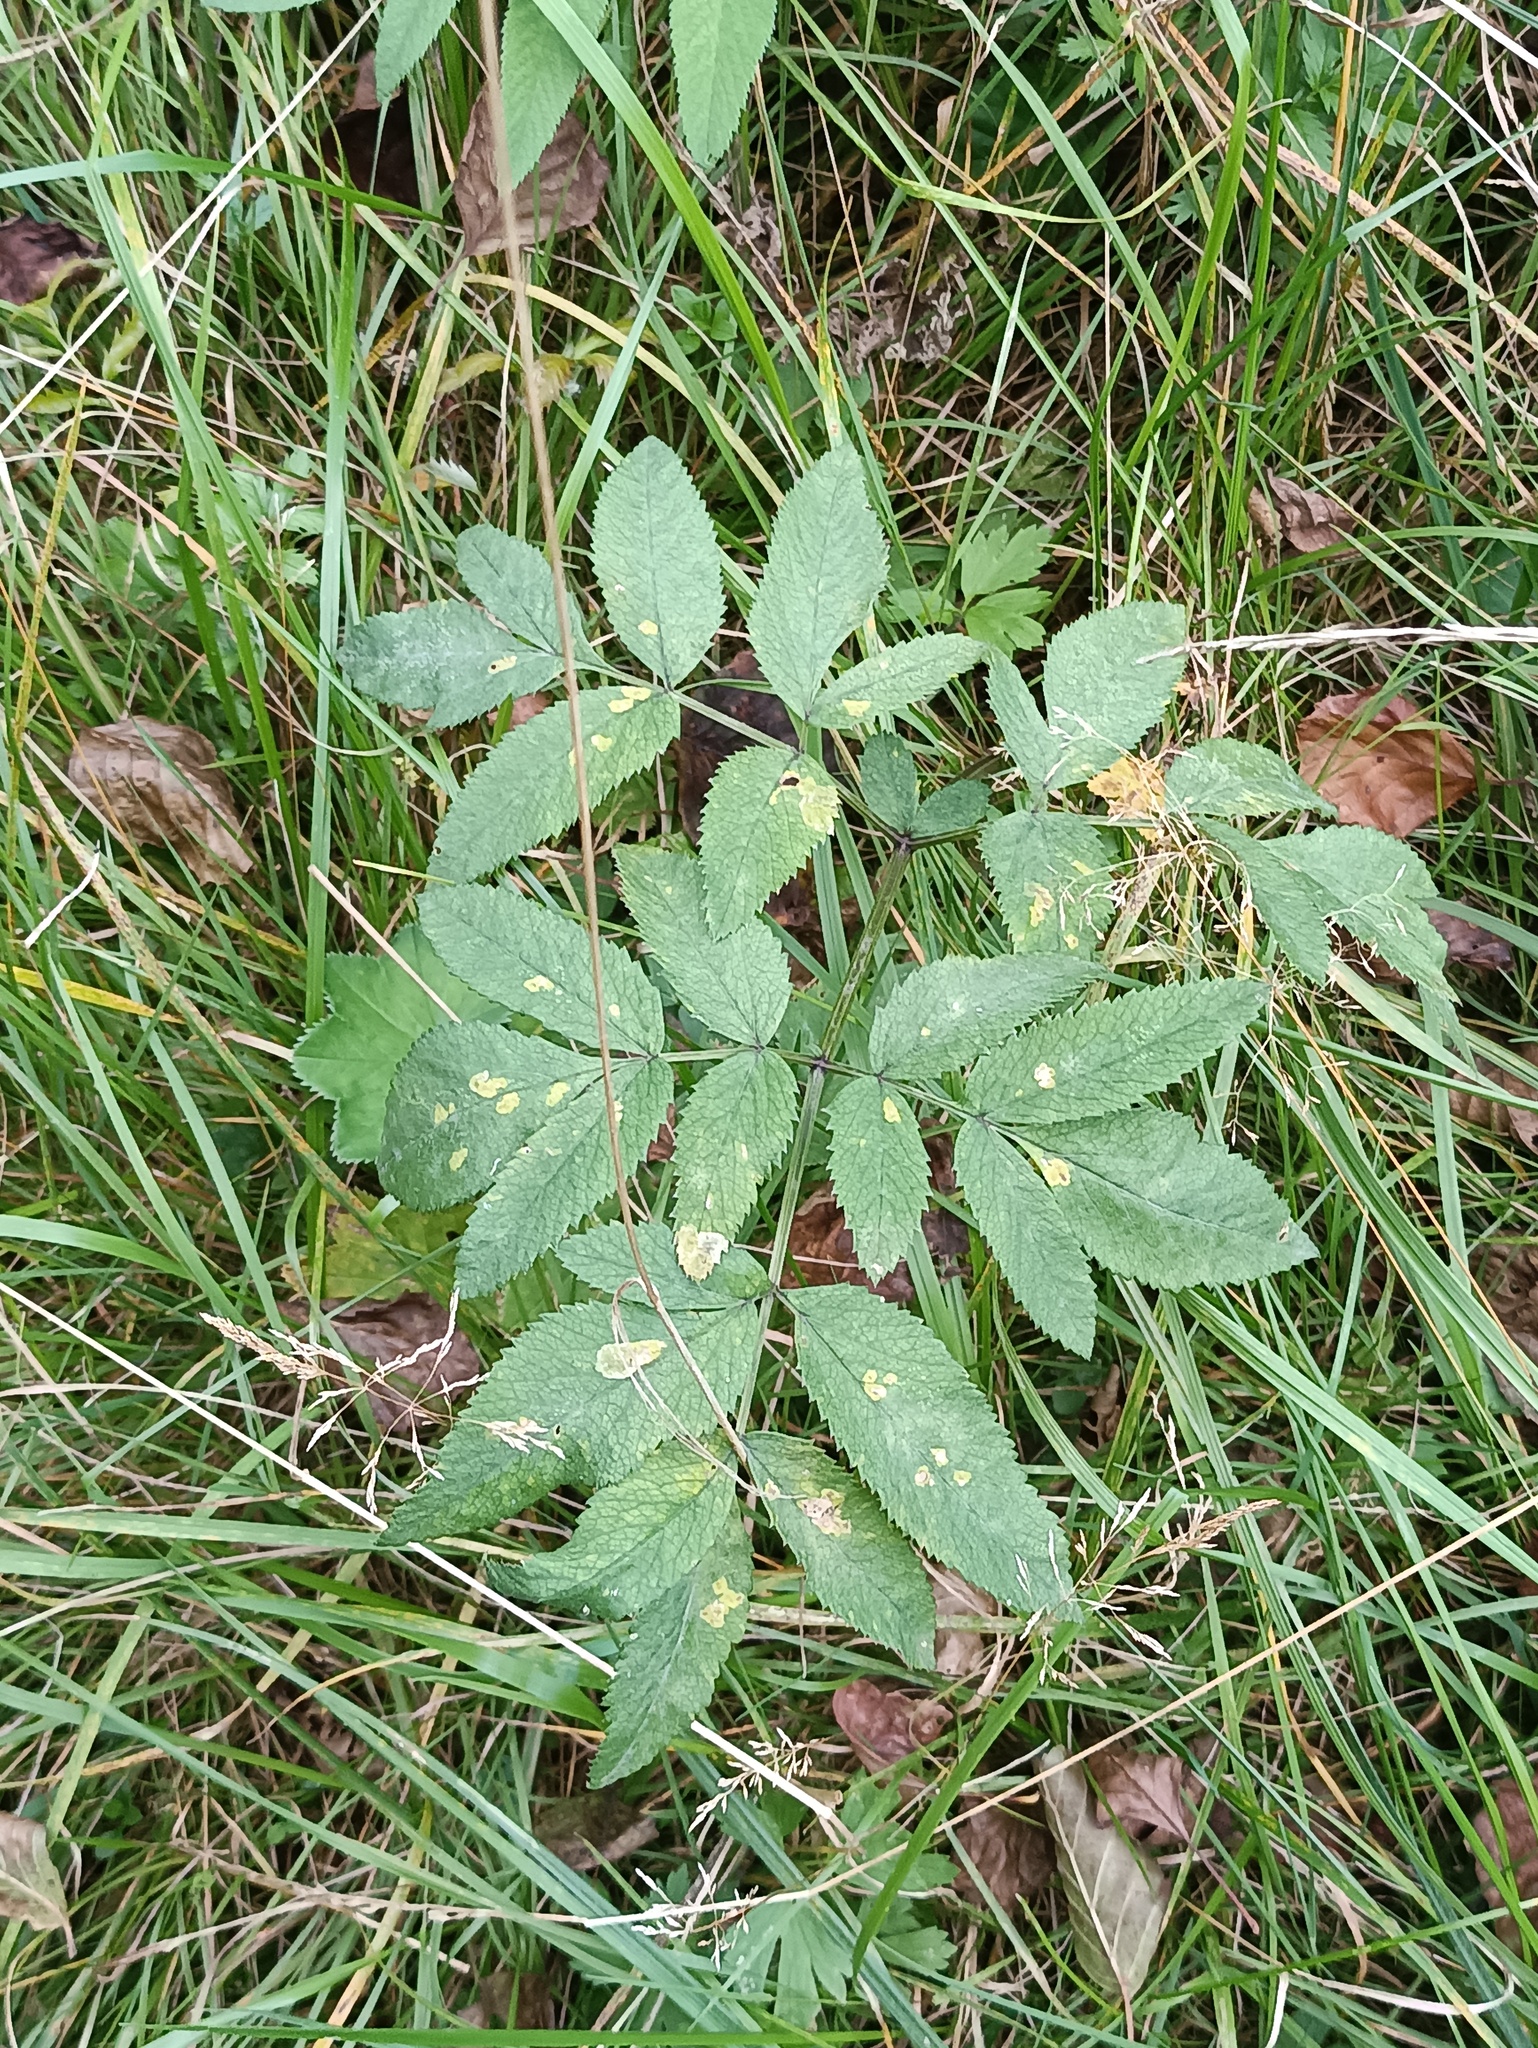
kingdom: Plantae
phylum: Tracheophyta
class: Magnoliopsida
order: Apiales
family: Apiaceae
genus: Angelica
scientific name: Angelica sylvestris
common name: Wild angelica
